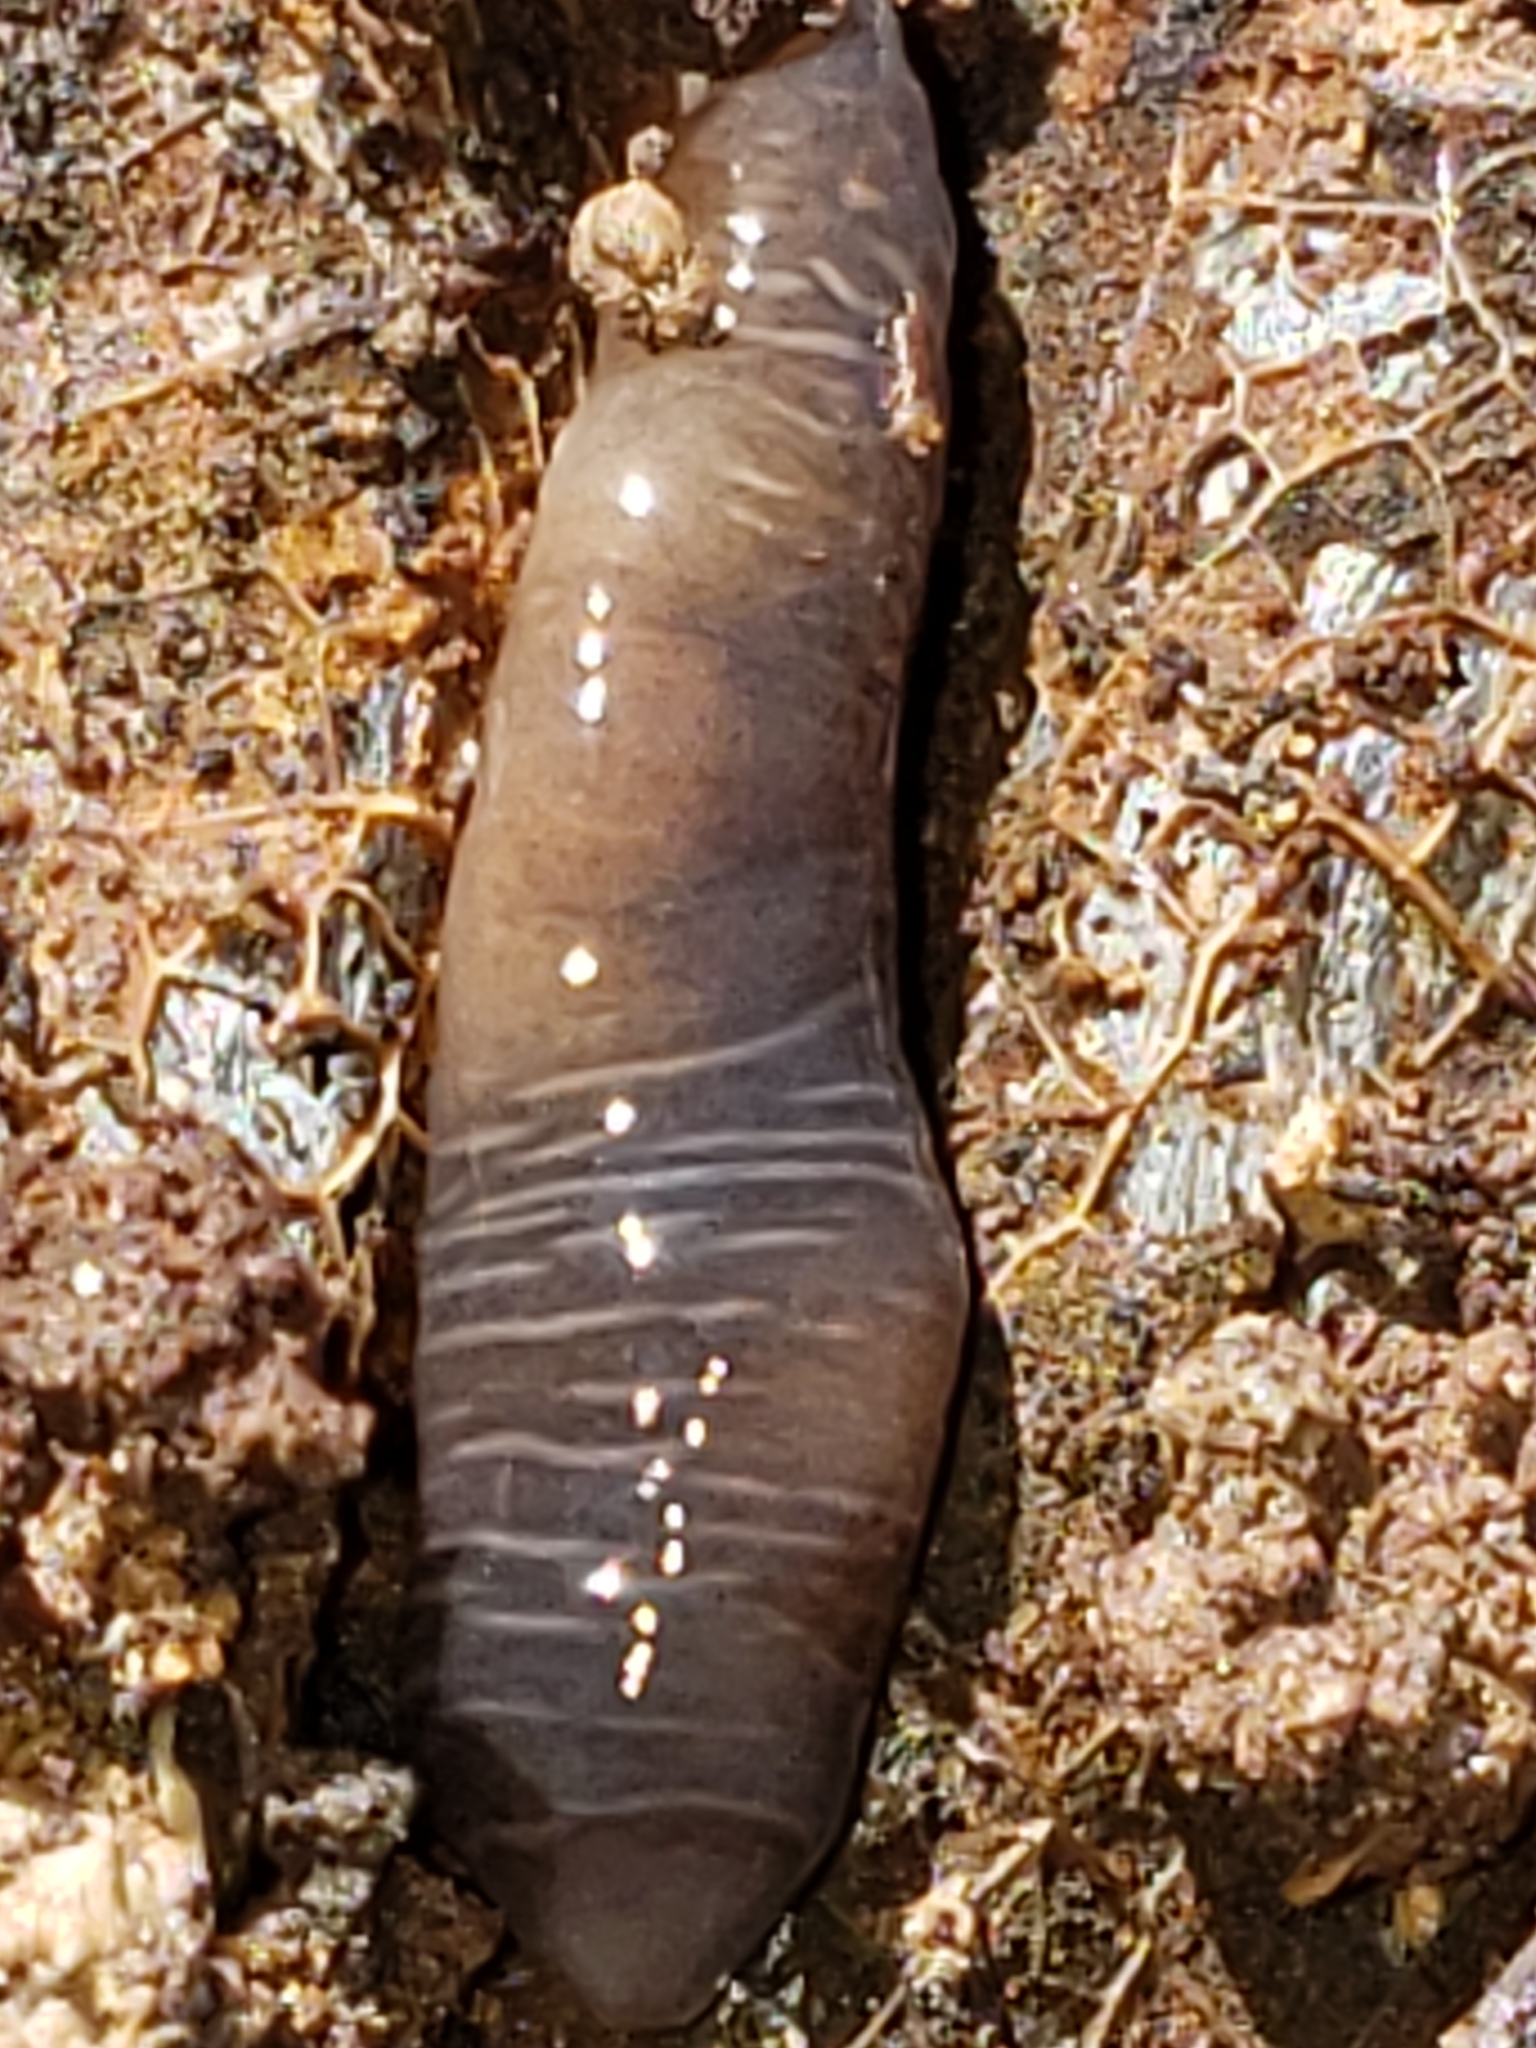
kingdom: Animalia
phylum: Platyhelminthes
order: Tricladida
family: Geoplanidae
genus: Microplana
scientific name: Microplana terrestris
